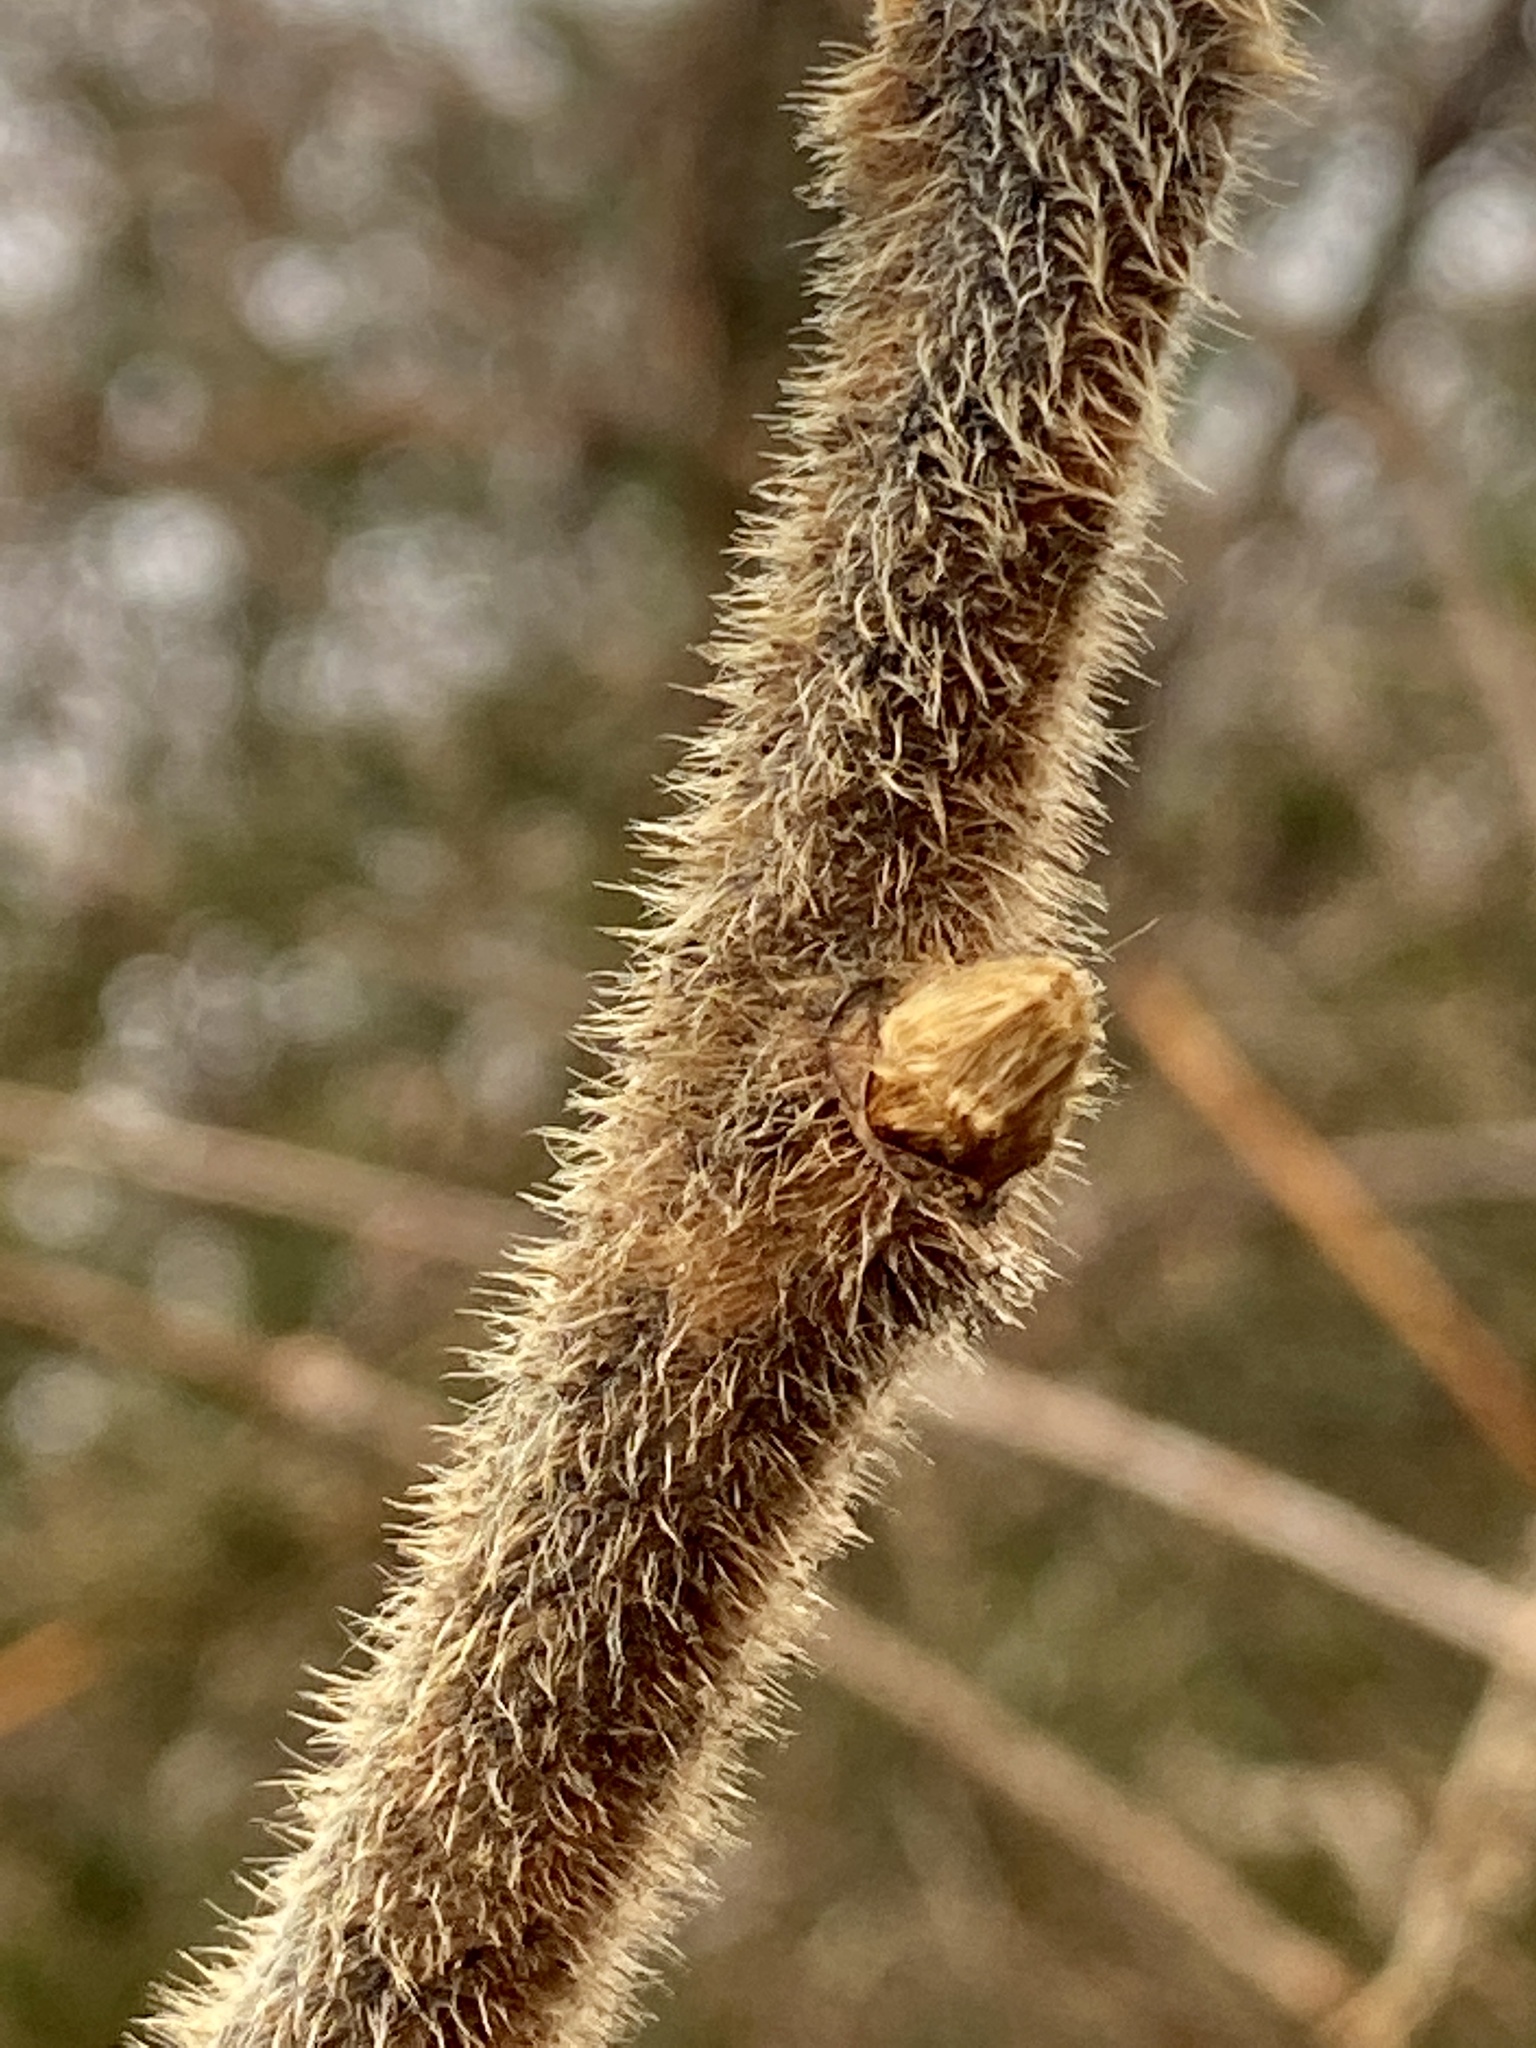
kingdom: Plantae
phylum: Tracheophyta
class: Magnoliopsida
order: Sapindales
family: Anacardiaceae
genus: Rhus
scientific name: Rhus typhina
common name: Staghorn sumac
